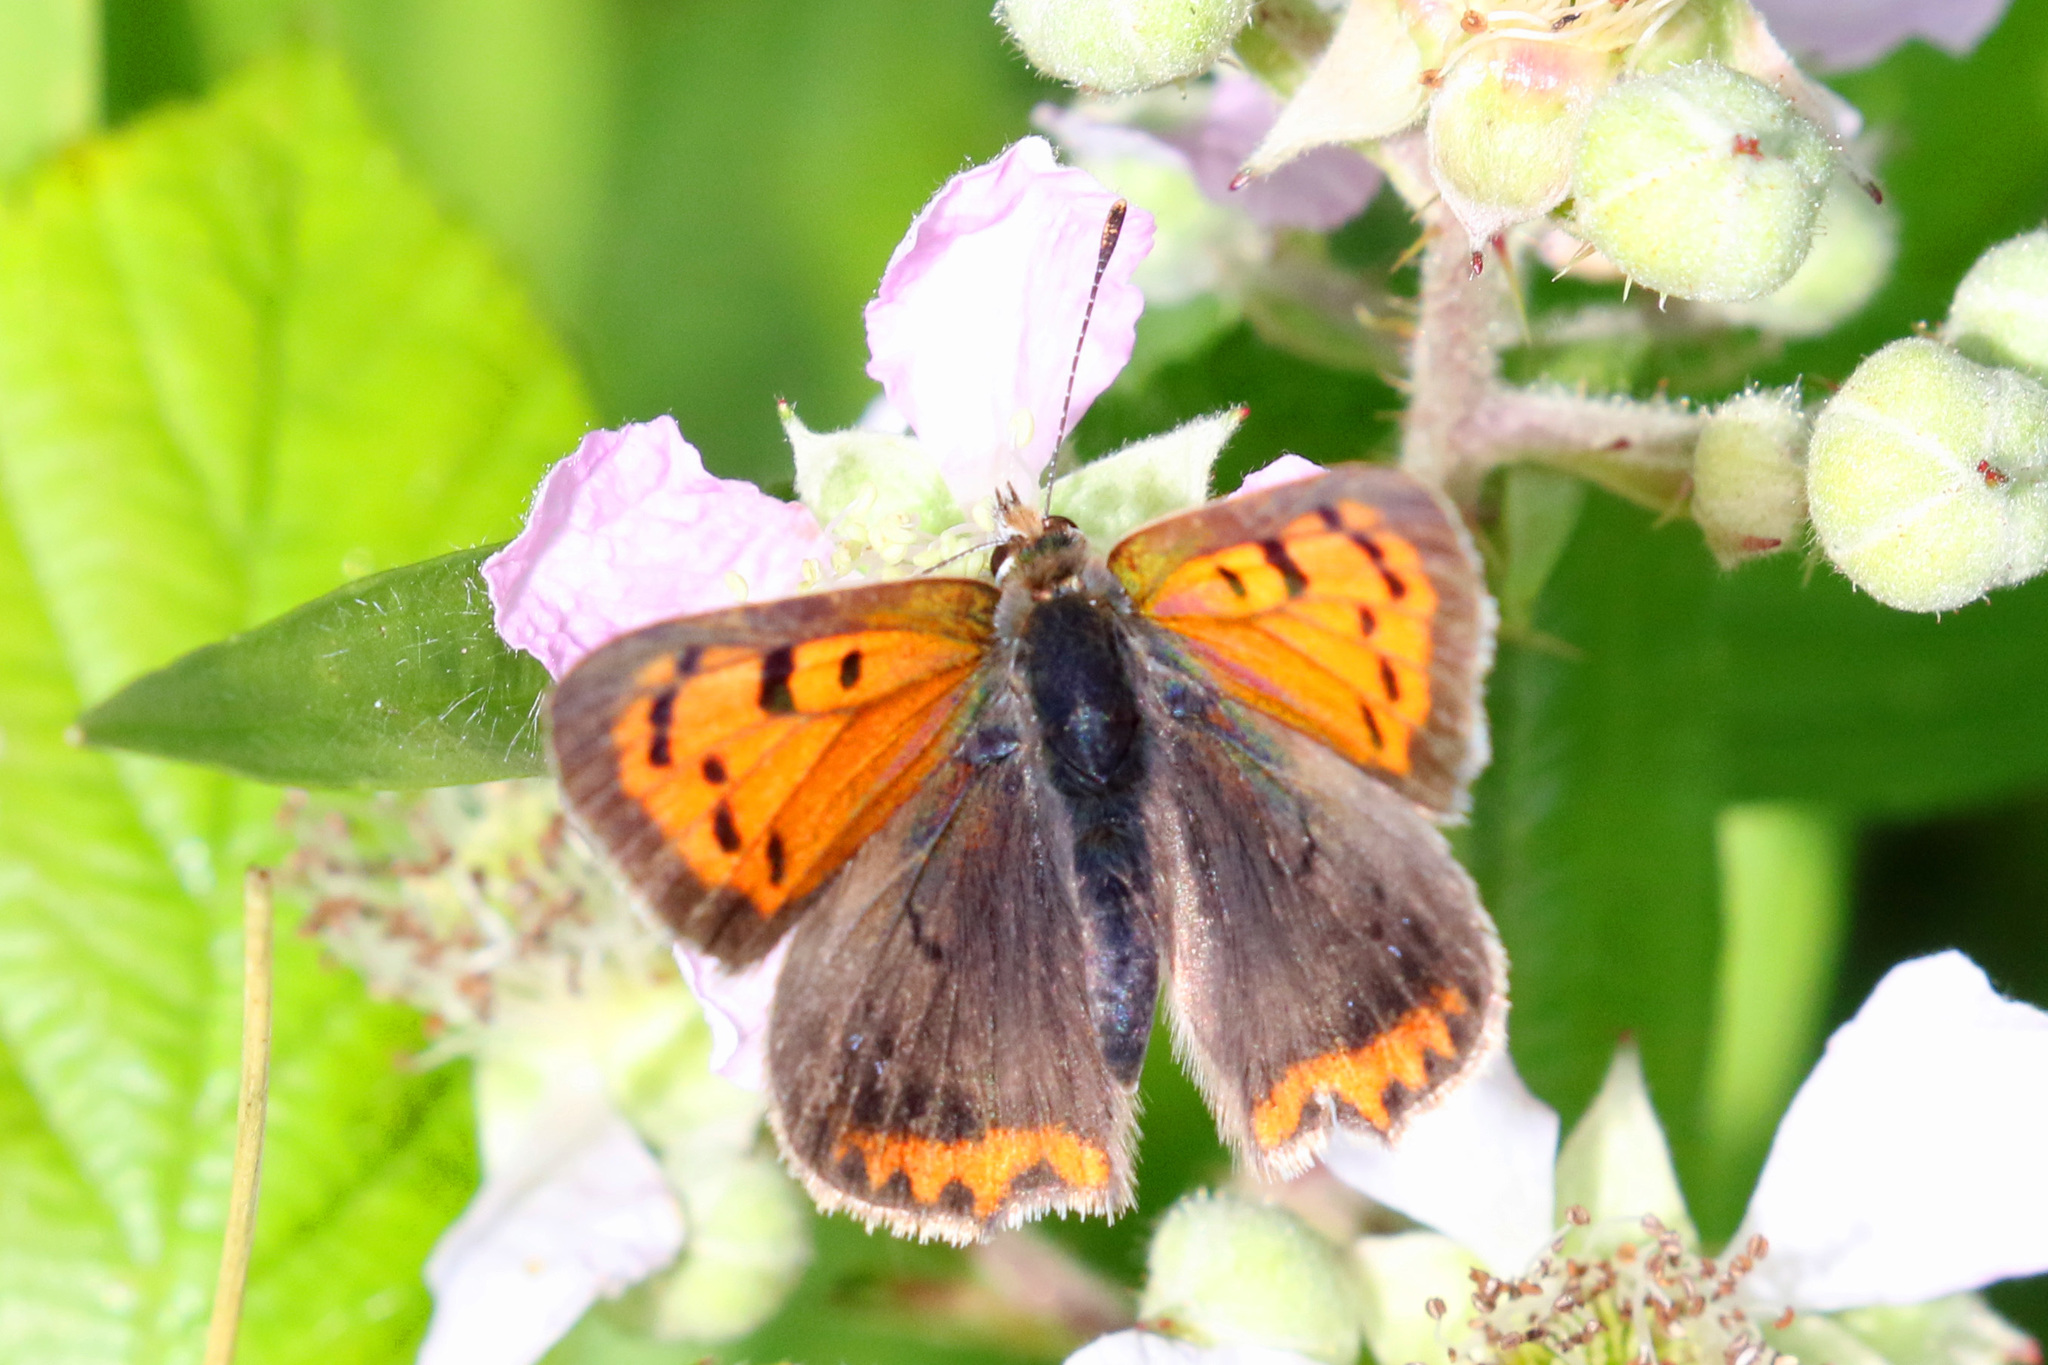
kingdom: Animalia
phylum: Arthropoda
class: Insecta
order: Lepidoptera
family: Lycaenidae
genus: Lycaena
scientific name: Lycaena phlaeas
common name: Small copper
